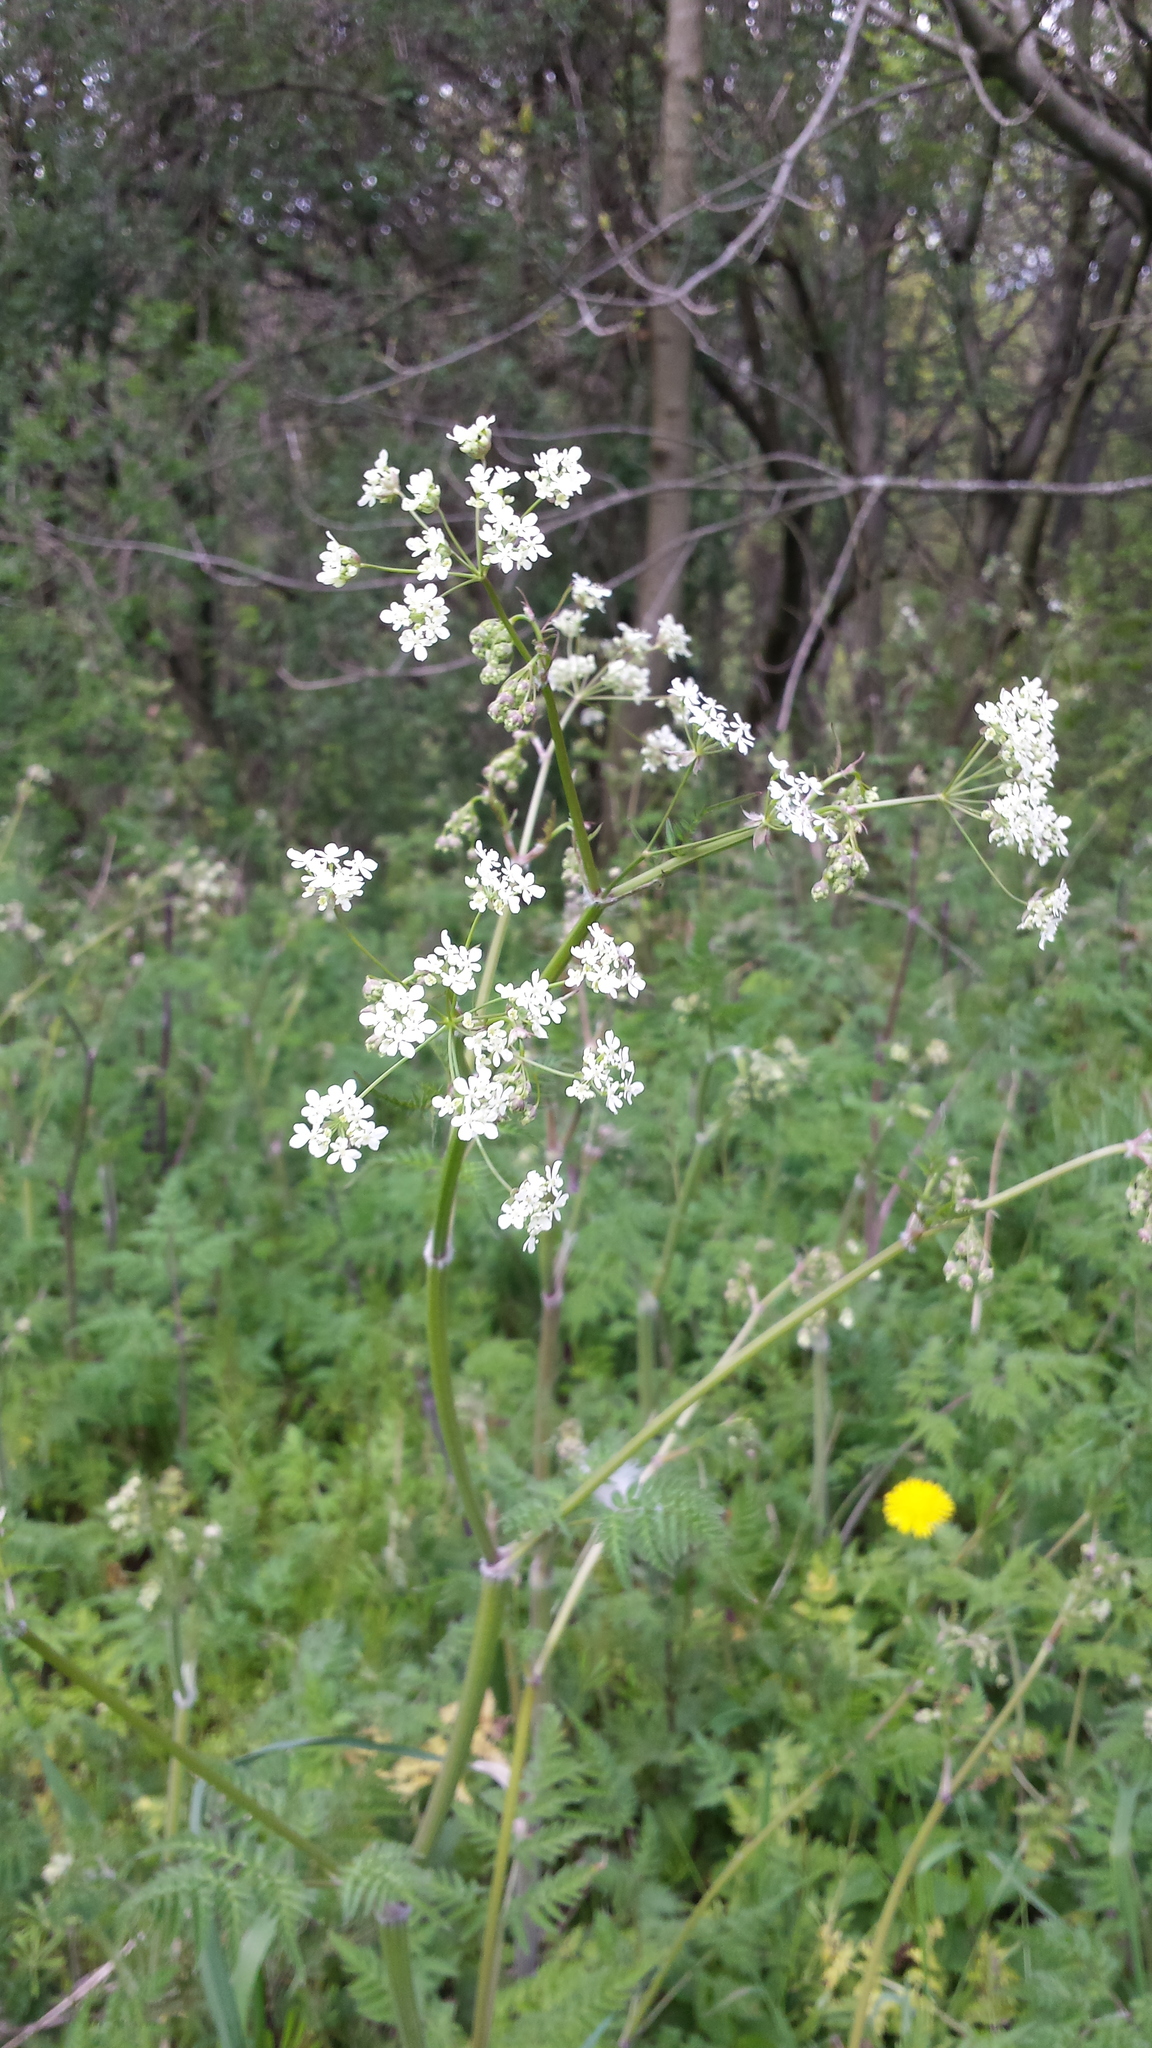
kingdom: Plantae
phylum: Tracheophyta
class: Magnoliopsida
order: Apiales
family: Apiaceae
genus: Anthriscus
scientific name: Anthriscus sylvestris
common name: Cow parsley
